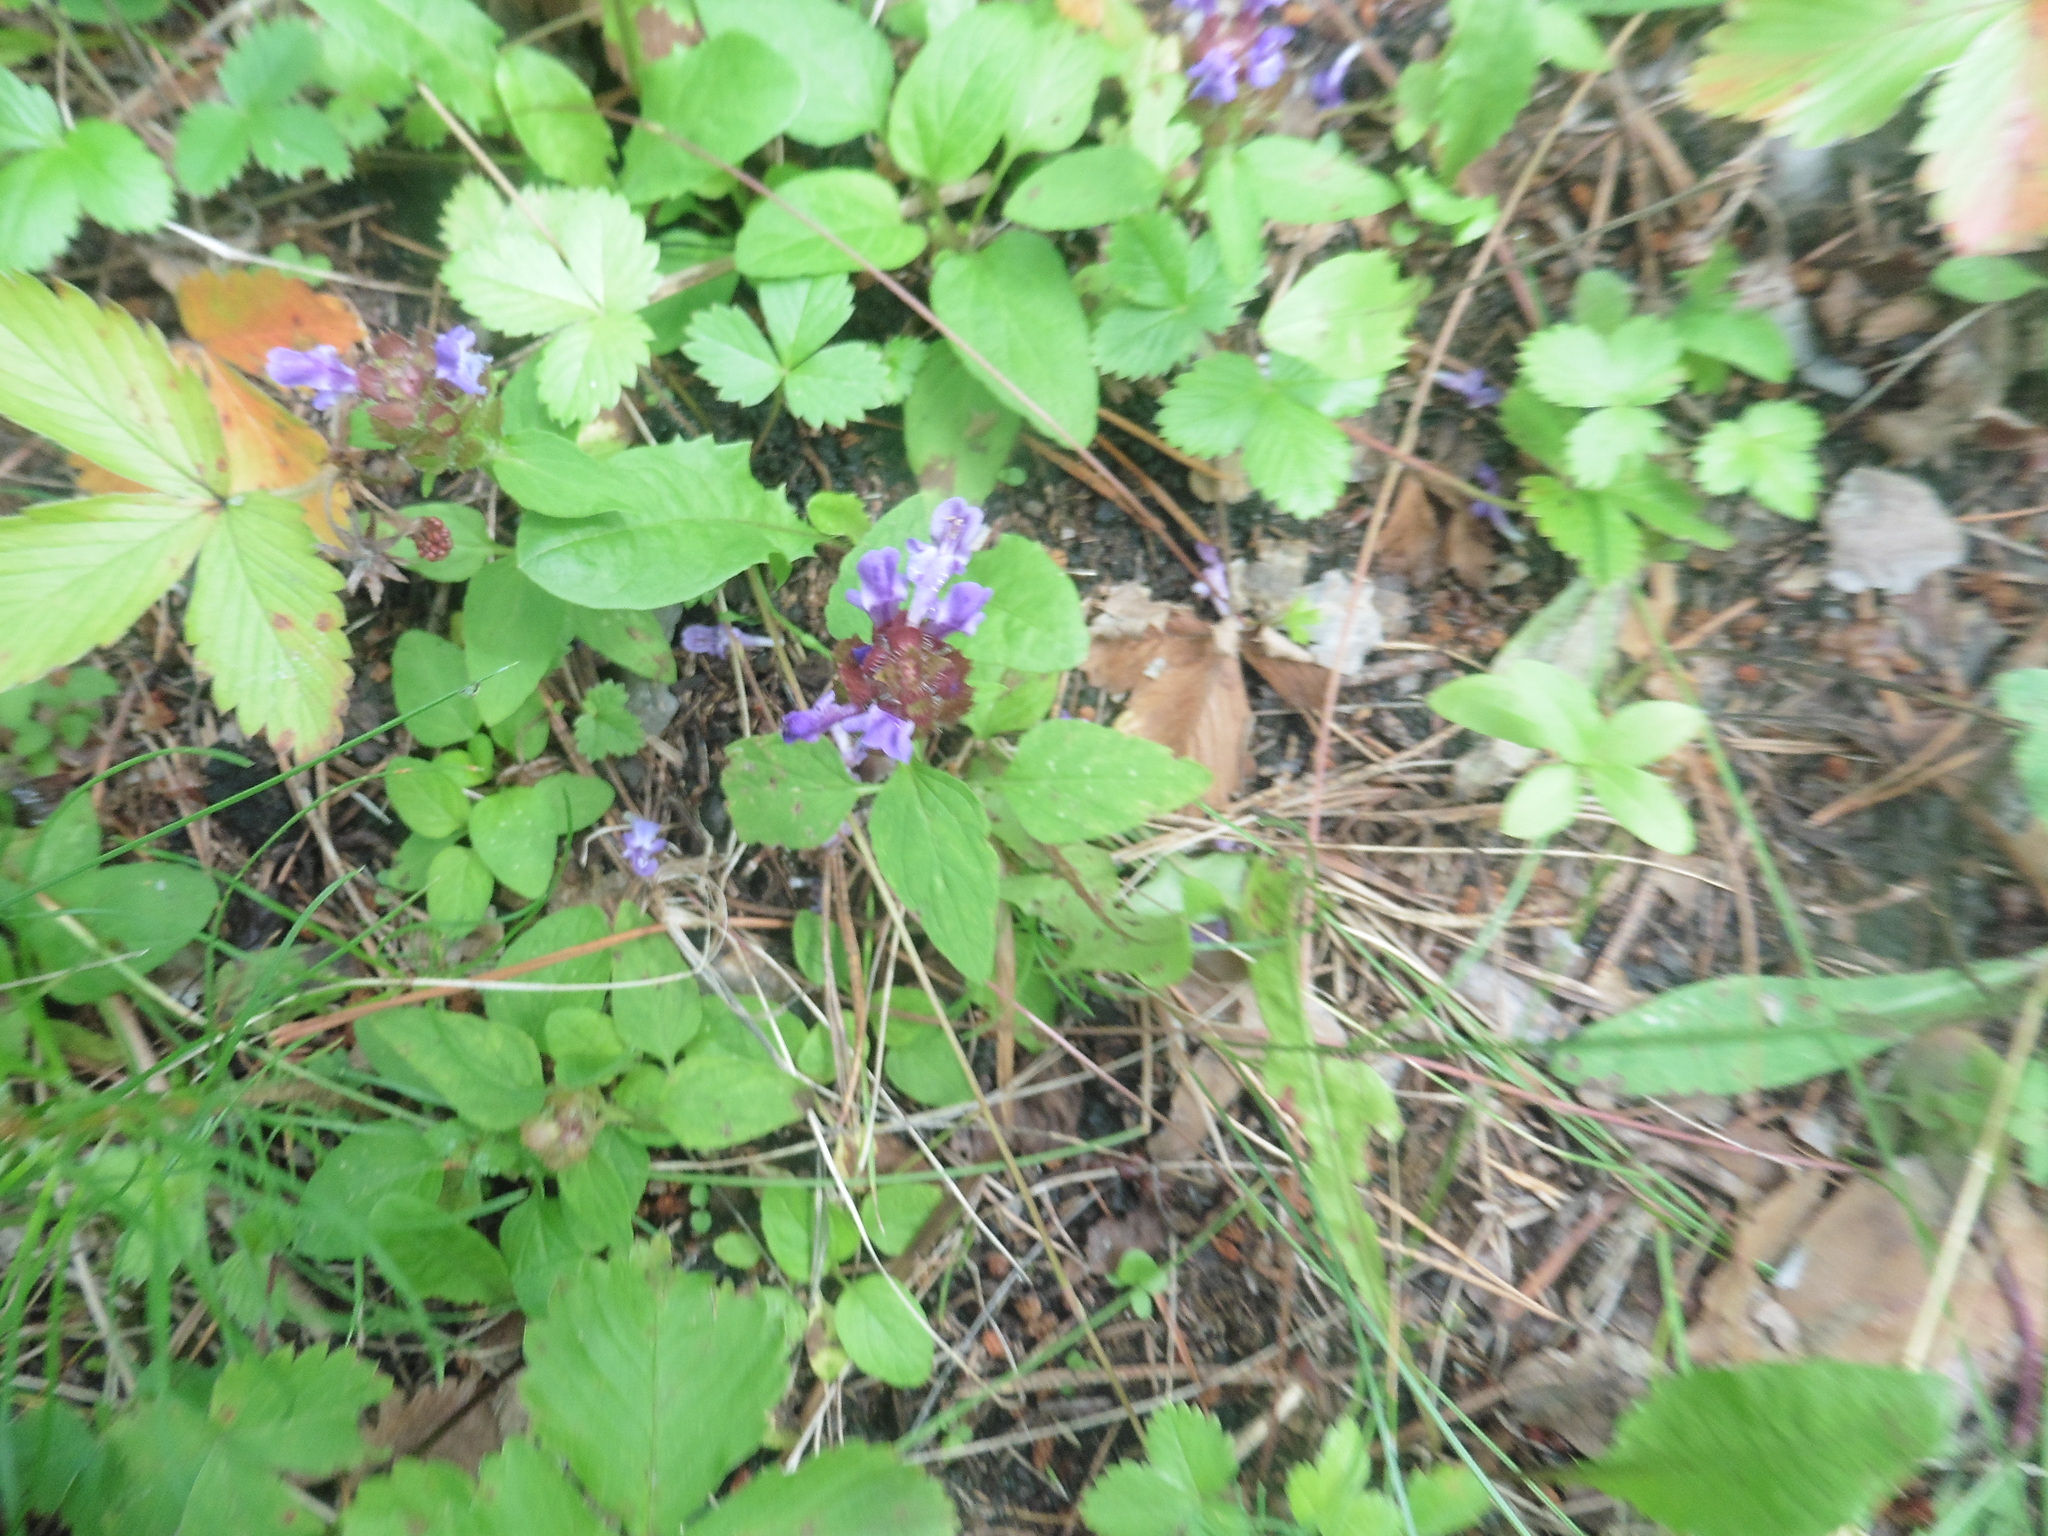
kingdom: Plantae
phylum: Tracheophyta
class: Magnoliopsida
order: Lamiales
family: Lamiaceae
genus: Prunella
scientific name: Prunella vulgaris
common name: Heal-all
